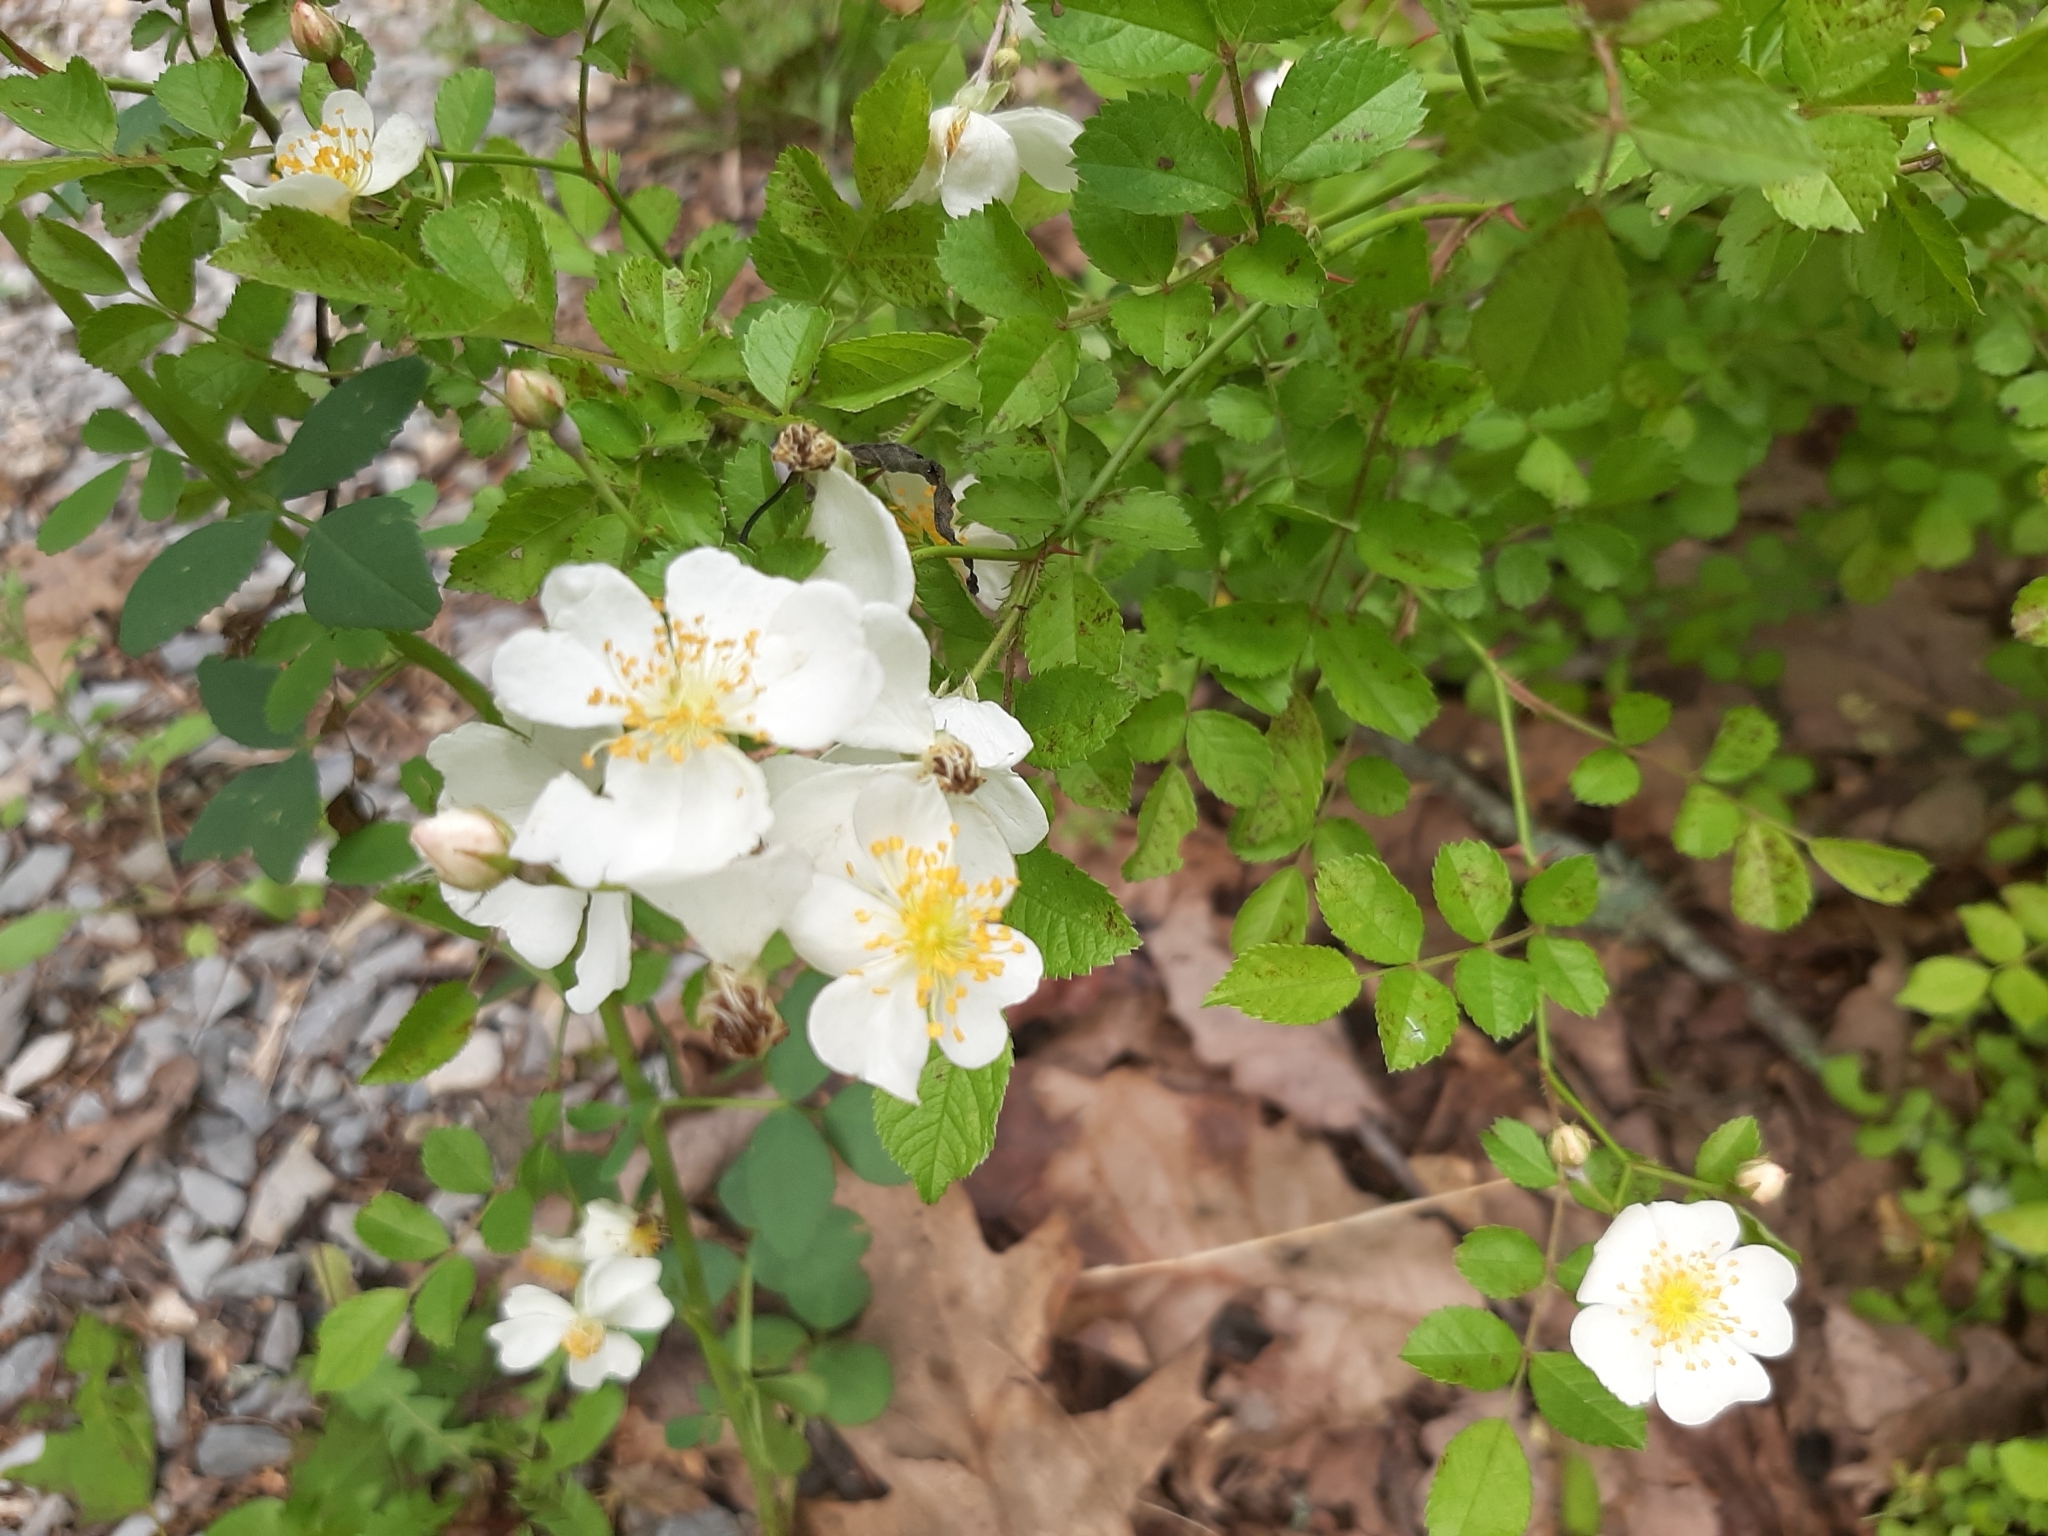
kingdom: Plantae
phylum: Tracheophyta
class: Magnoliopsida
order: Rosales
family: Rosaceae
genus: Rosa
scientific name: Rosa multiflora
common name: Multiflora rose
